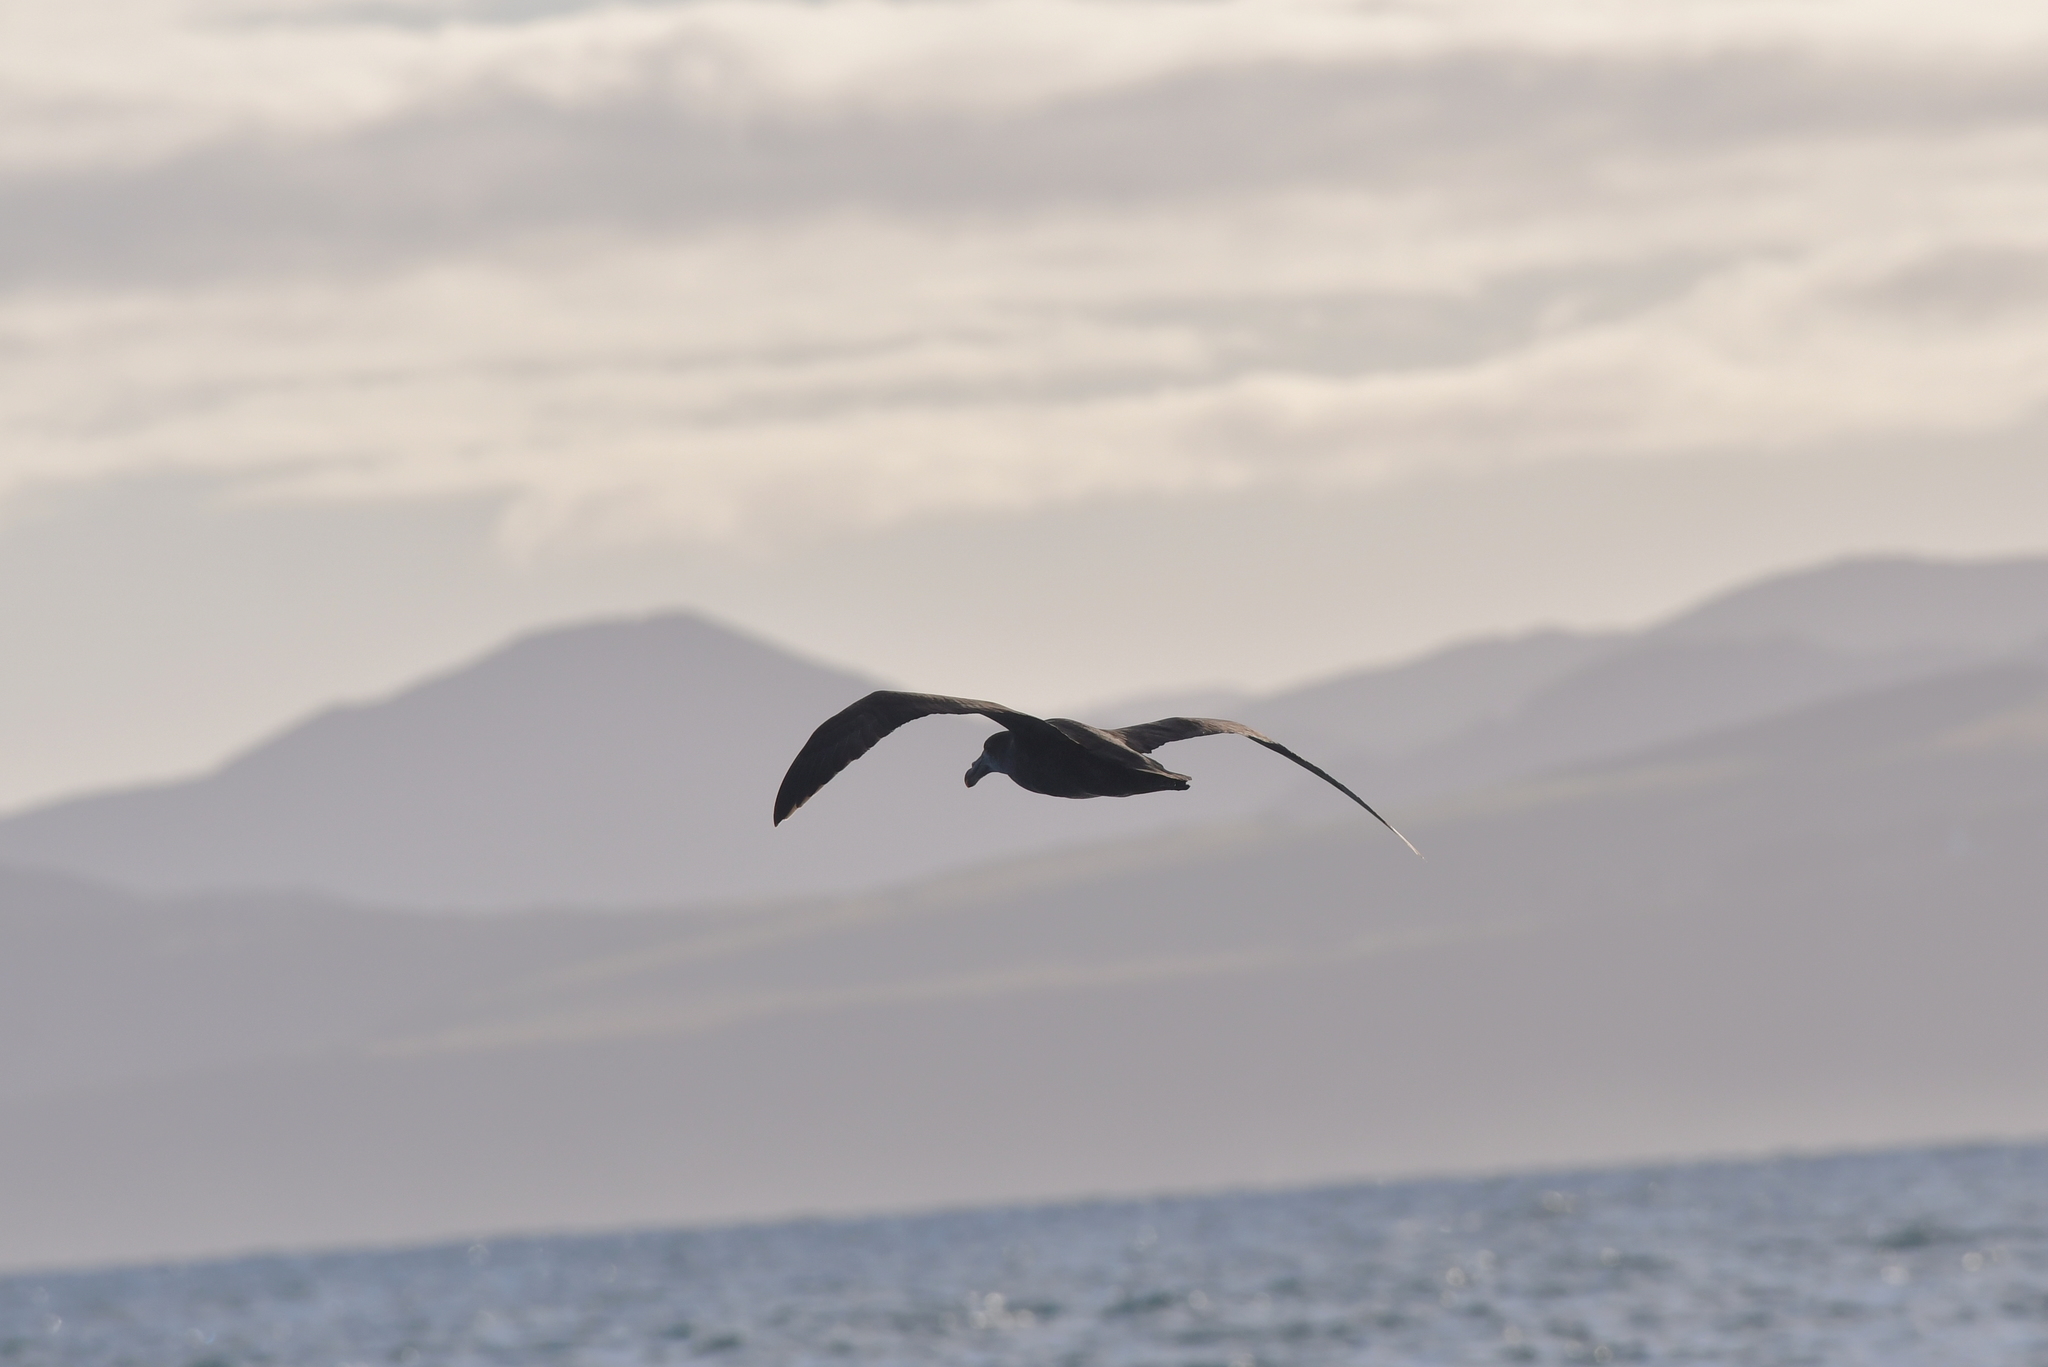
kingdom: Animalia
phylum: Chordata
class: Aves
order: Procellariiformes
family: Procellariidae
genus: Macronectes
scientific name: Macronectes halli
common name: Northern giant petrel
